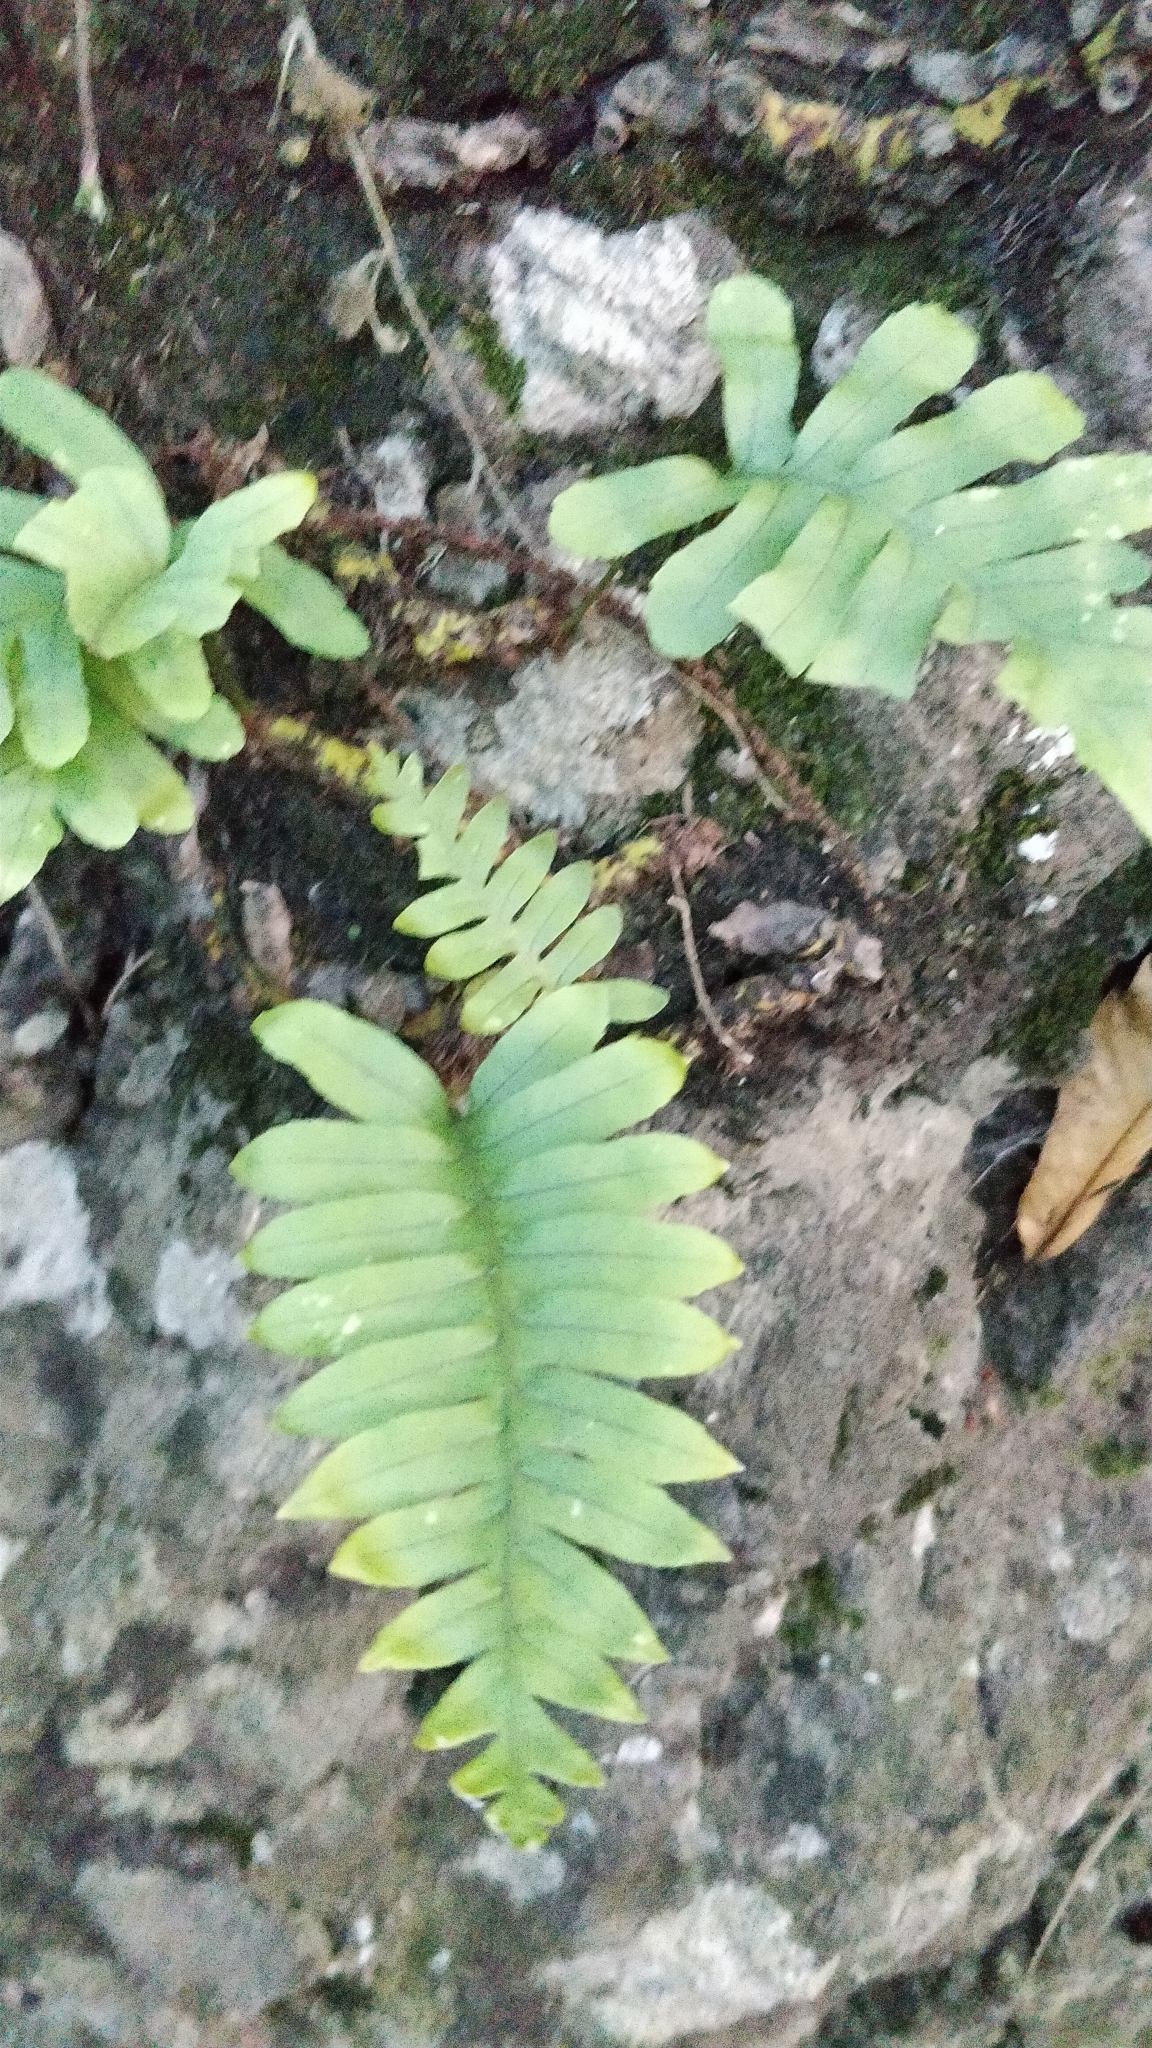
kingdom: Plantae
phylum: Tracheophyta
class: Polypodiopsida
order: Polypodiales
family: Polypodiaceae
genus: Polypodium
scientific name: Polypodium macaronesicum
